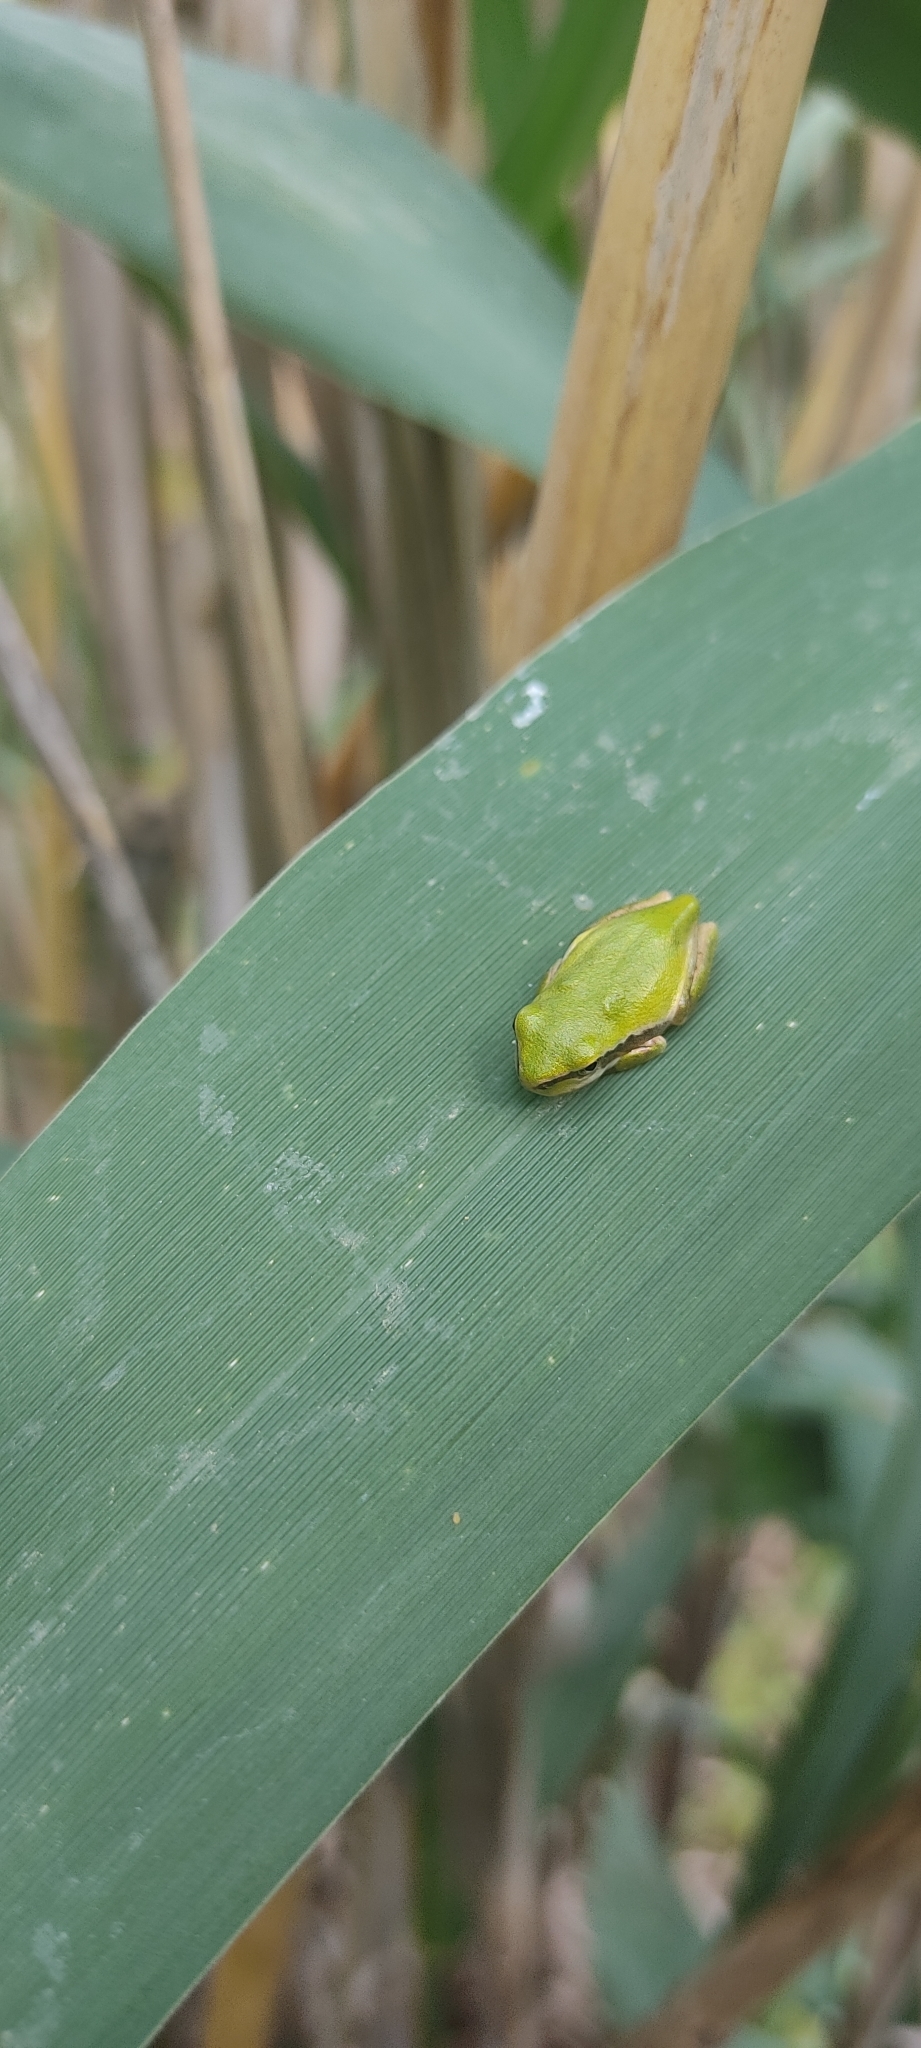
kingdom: Animalia
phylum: Chordata
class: Amphibia
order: Anura
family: Hylidae
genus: Hyla
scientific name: Hyla meridionalis
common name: Stripeless tree frog
